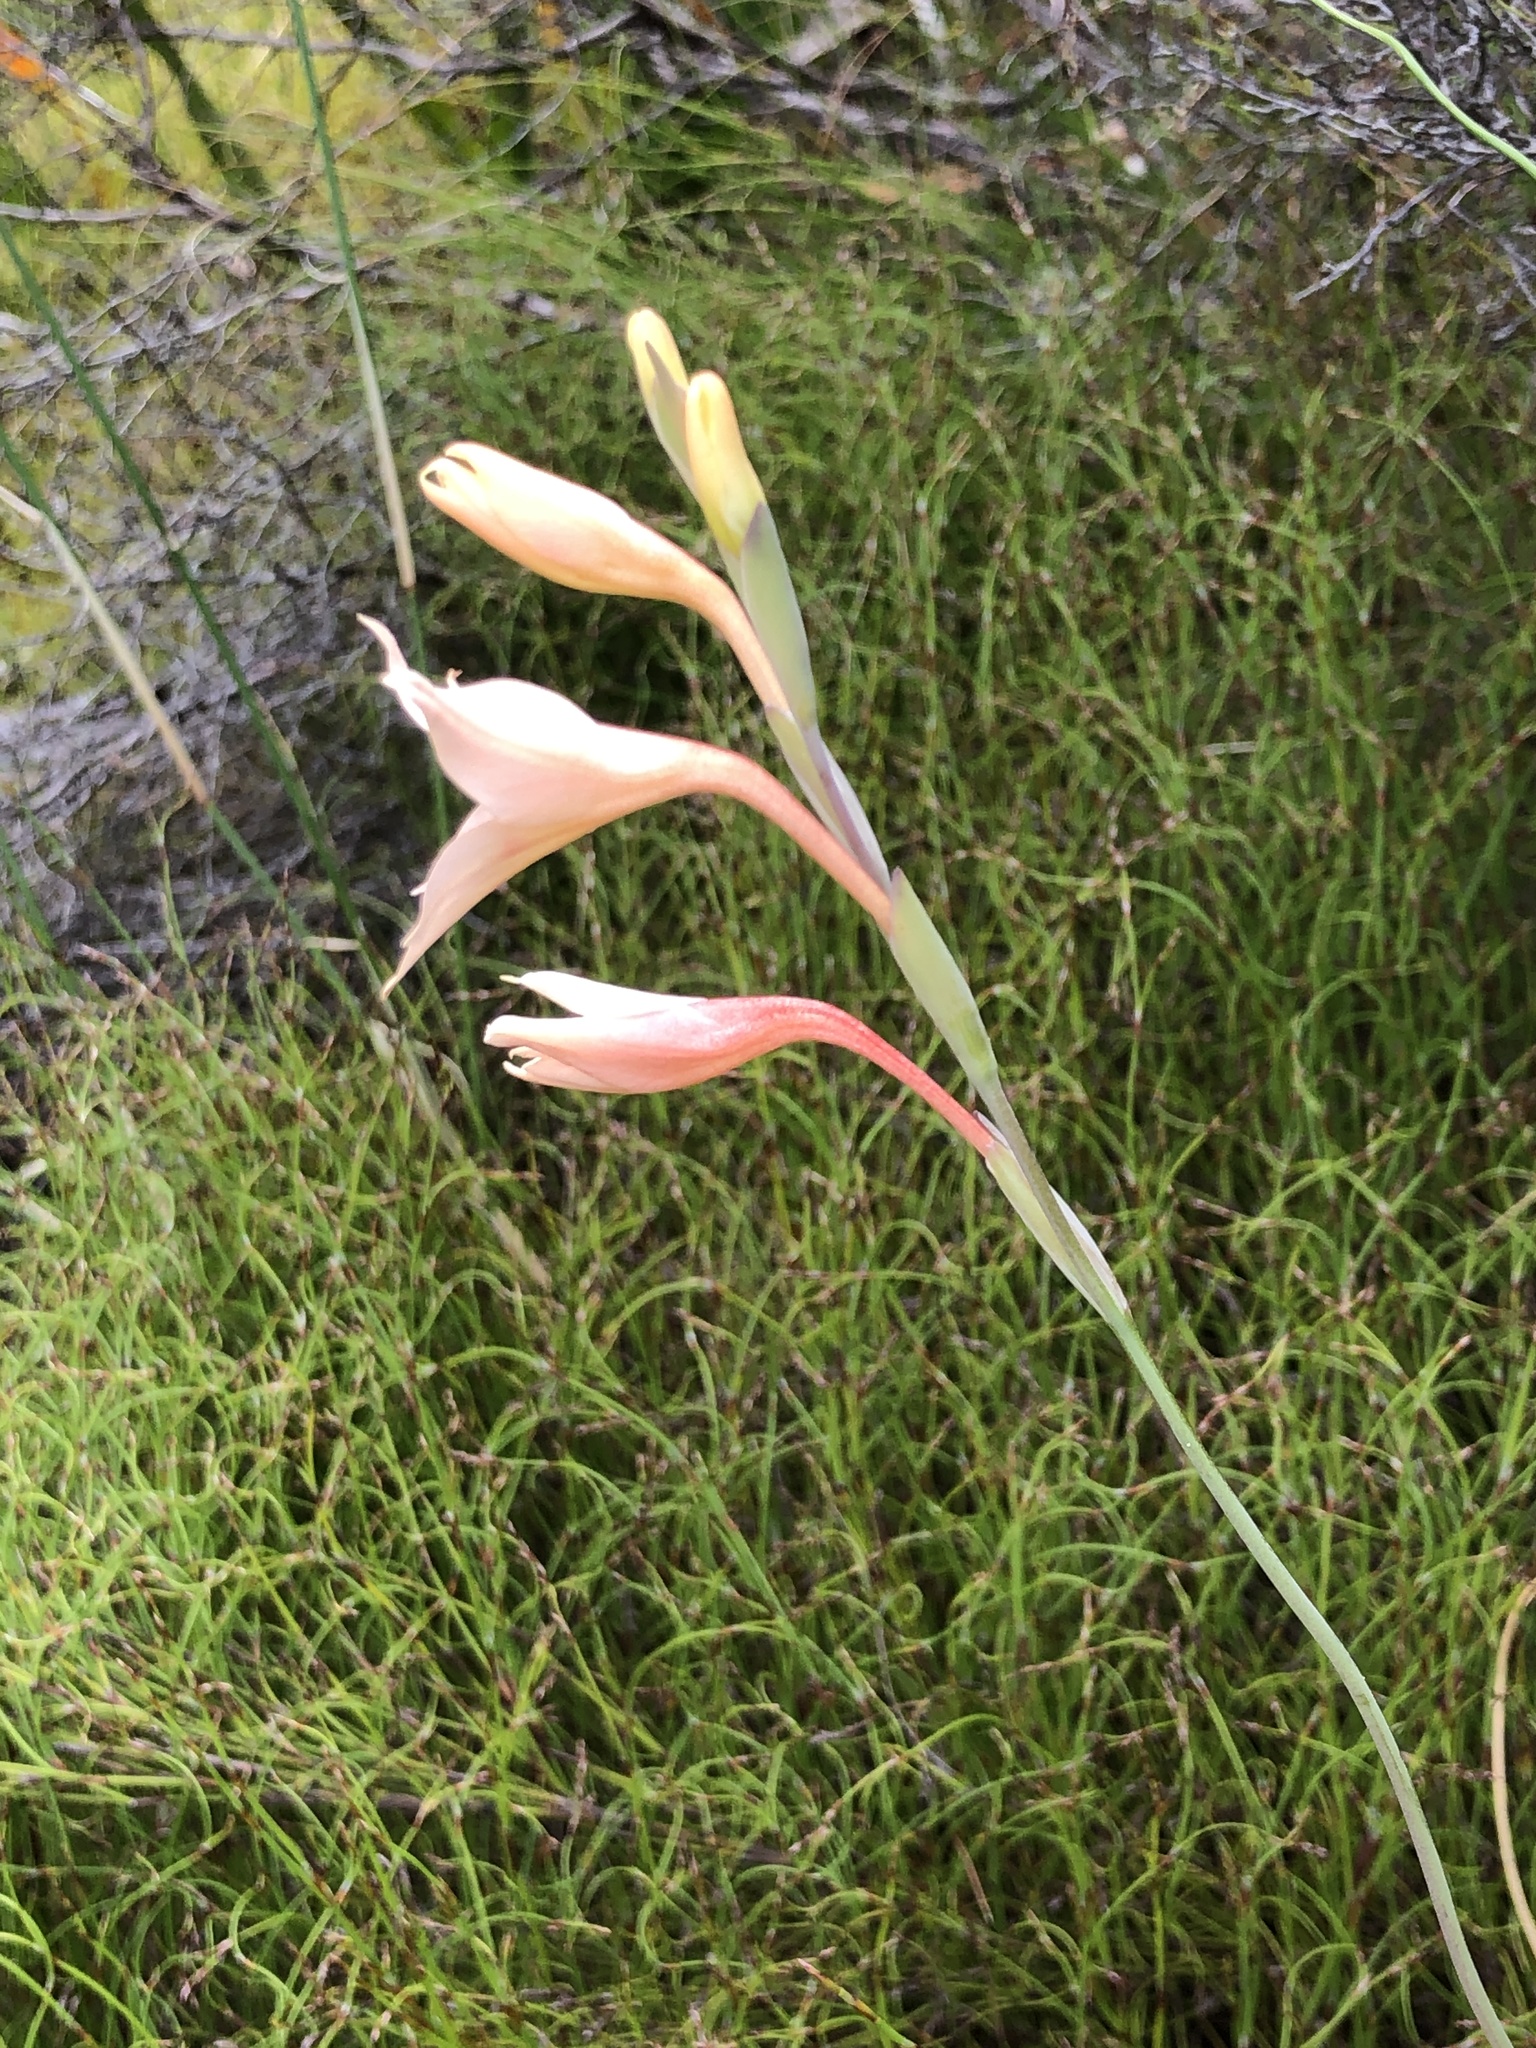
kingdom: Plantae
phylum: Tracheophyta
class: Liliopsida
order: Asparagales
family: Iridaceae
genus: Gladiolus
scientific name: Gladiolus monticola
